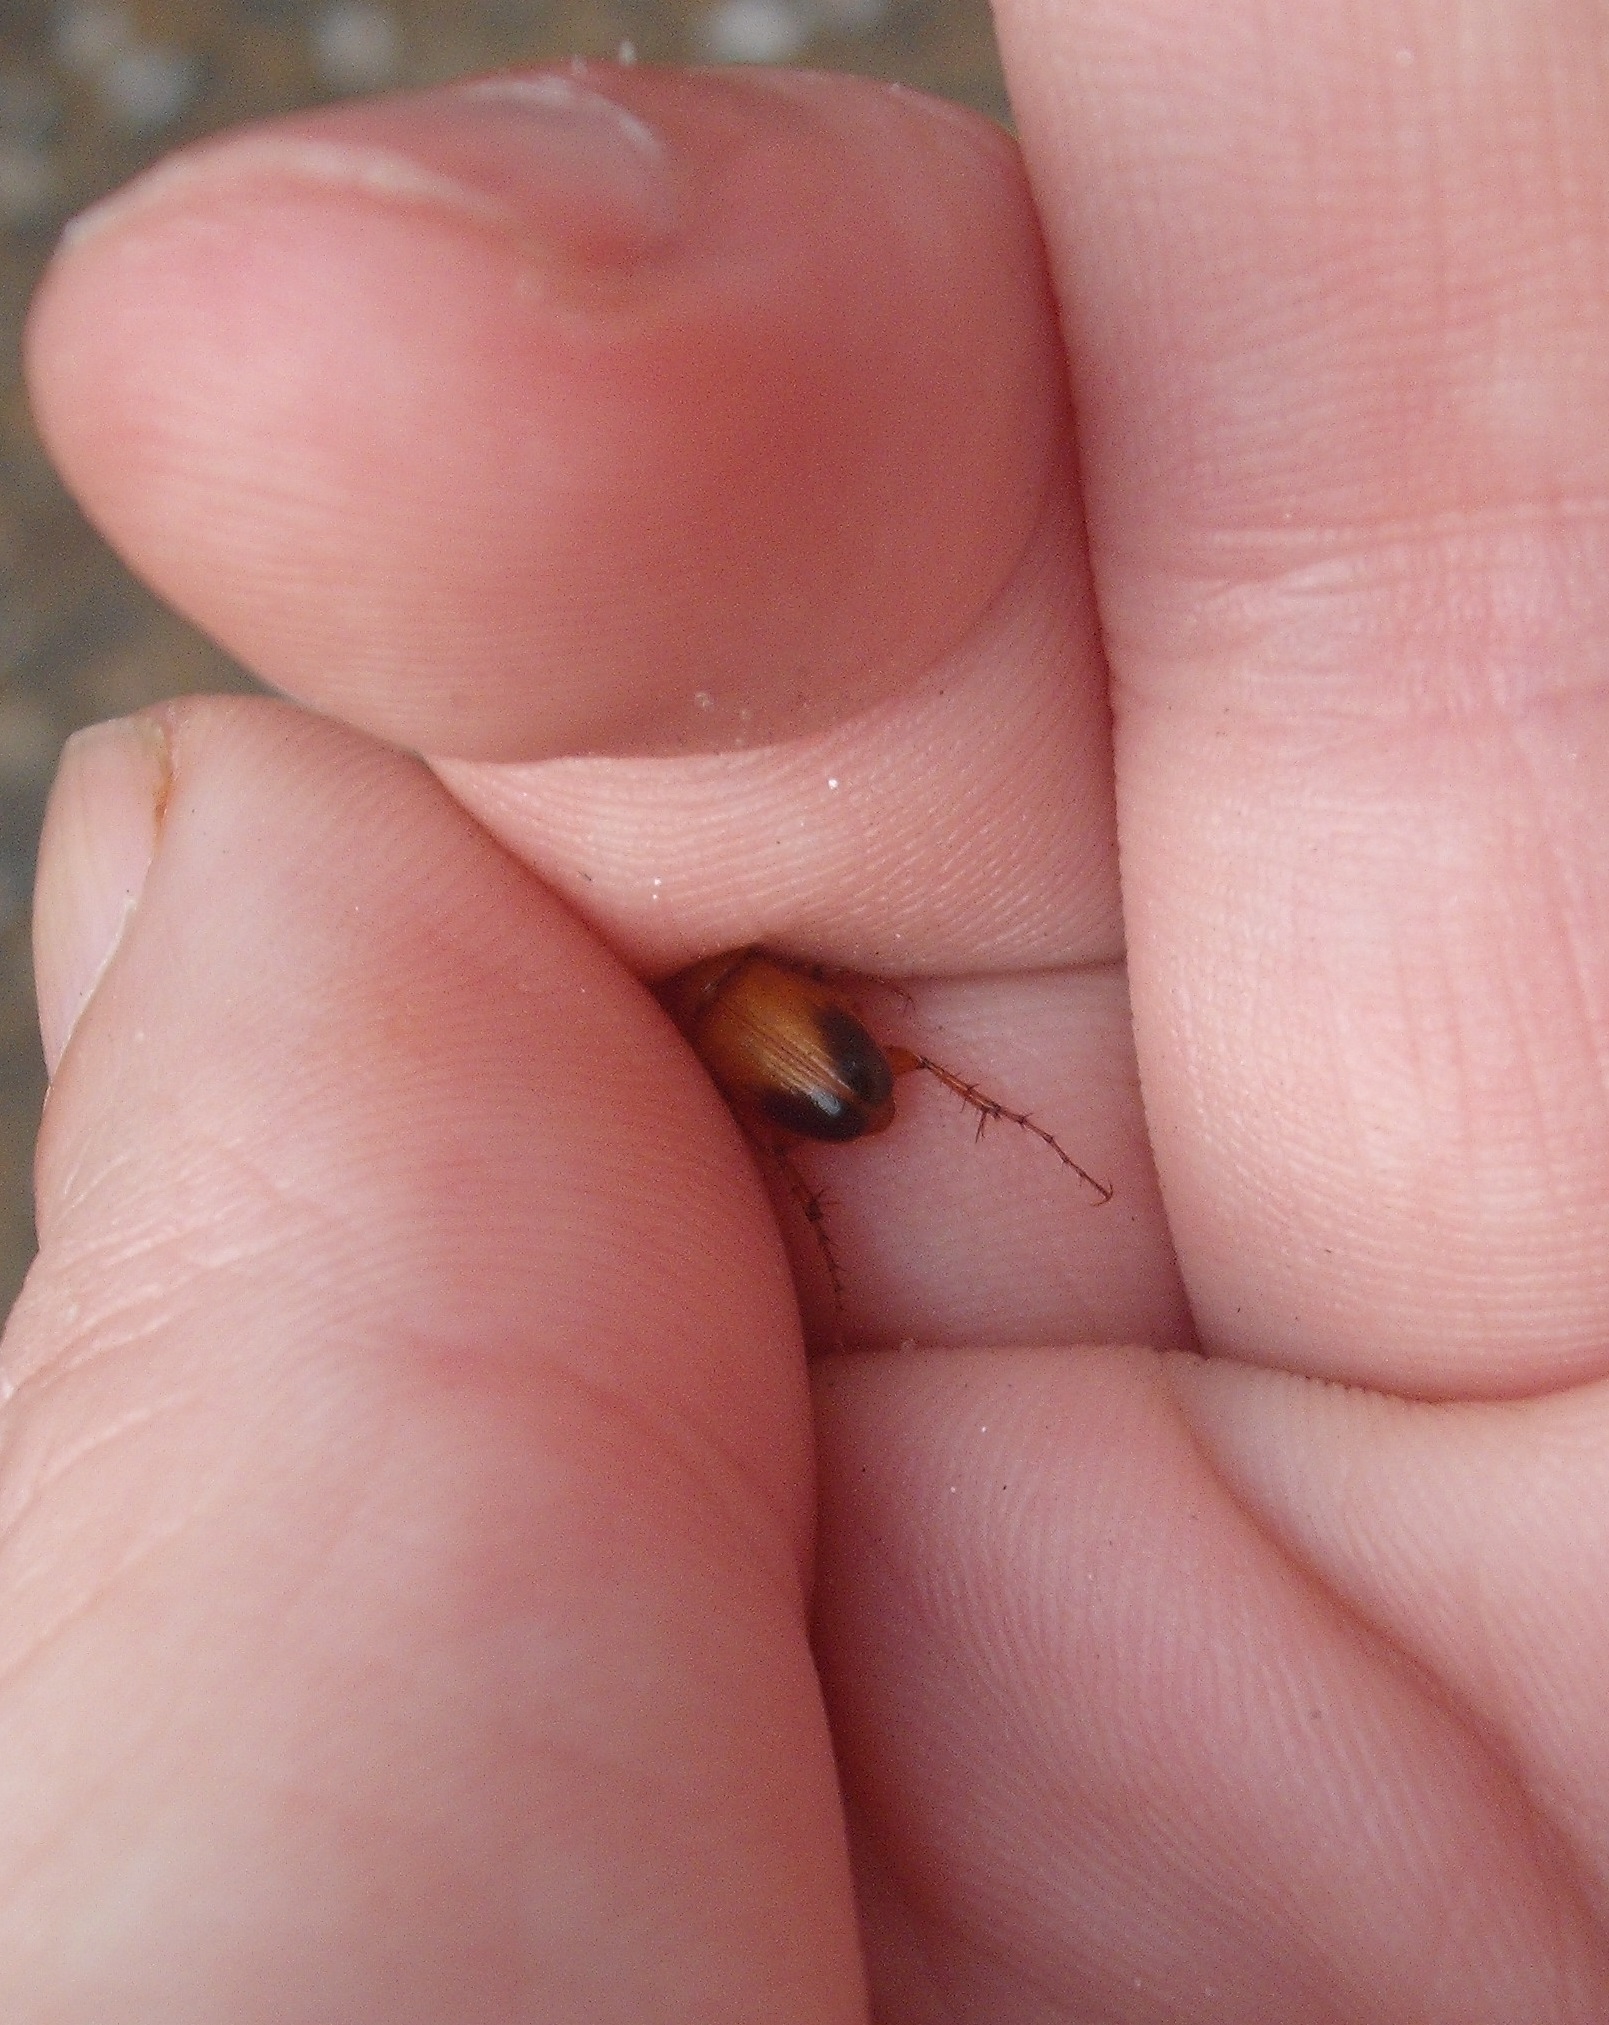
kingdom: Animalia
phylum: Arthropoda
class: Insecta
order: Coleoptera
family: Scarabaeidae
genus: Phyllotocus
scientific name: Phyllotocus macleayi
